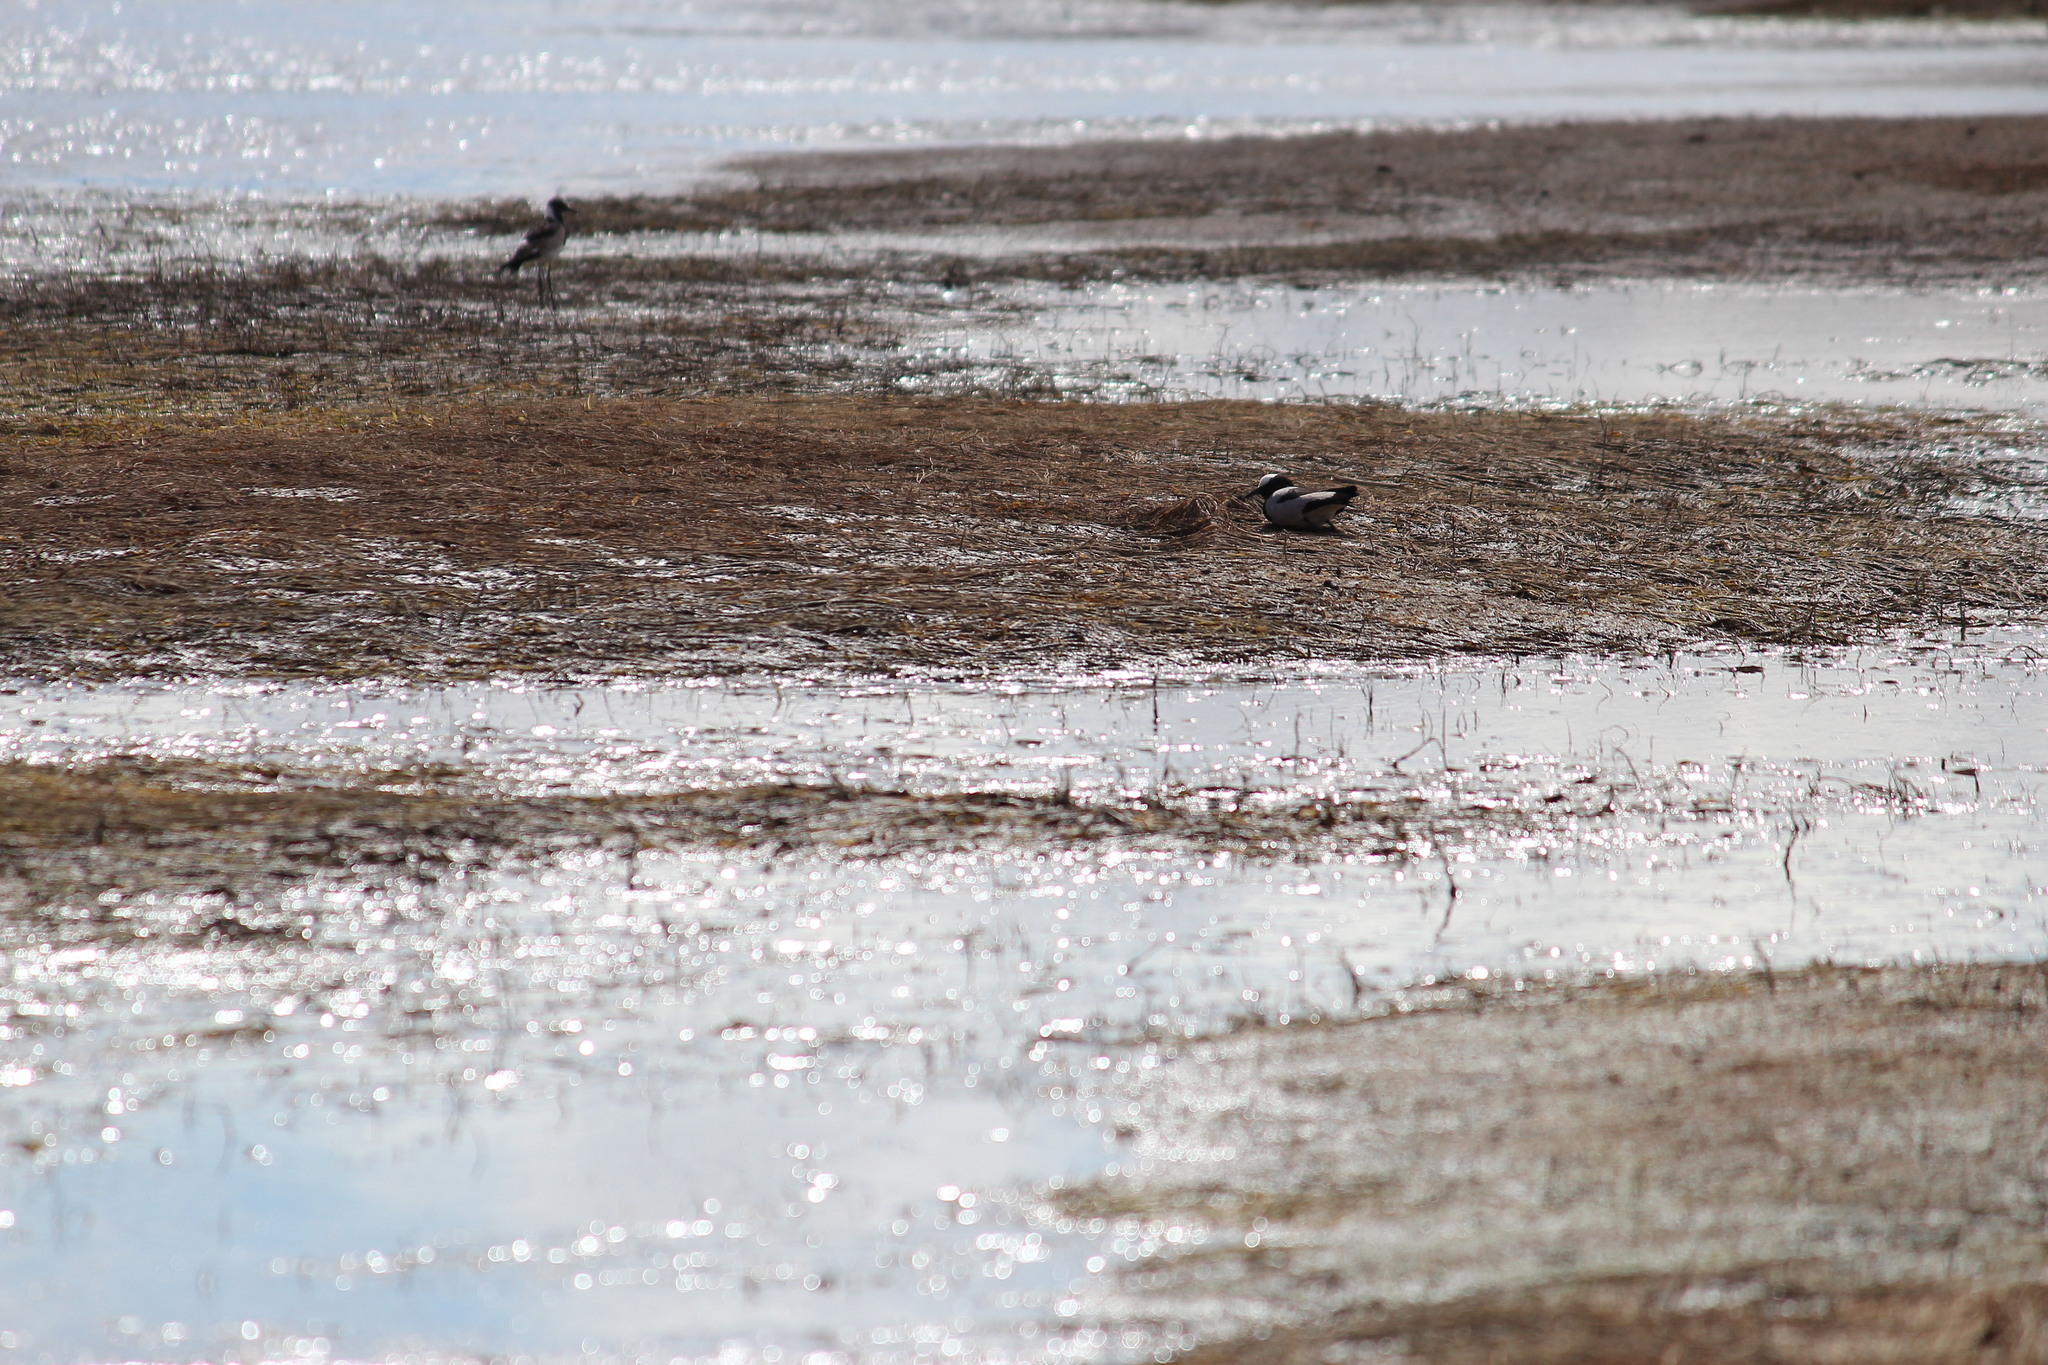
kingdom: Animalia
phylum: Chordata
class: Aves
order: Charadriiformes
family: Charadriidae
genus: Vanellus
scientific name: Vanellus armatus
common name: Blacksmith lapwing
